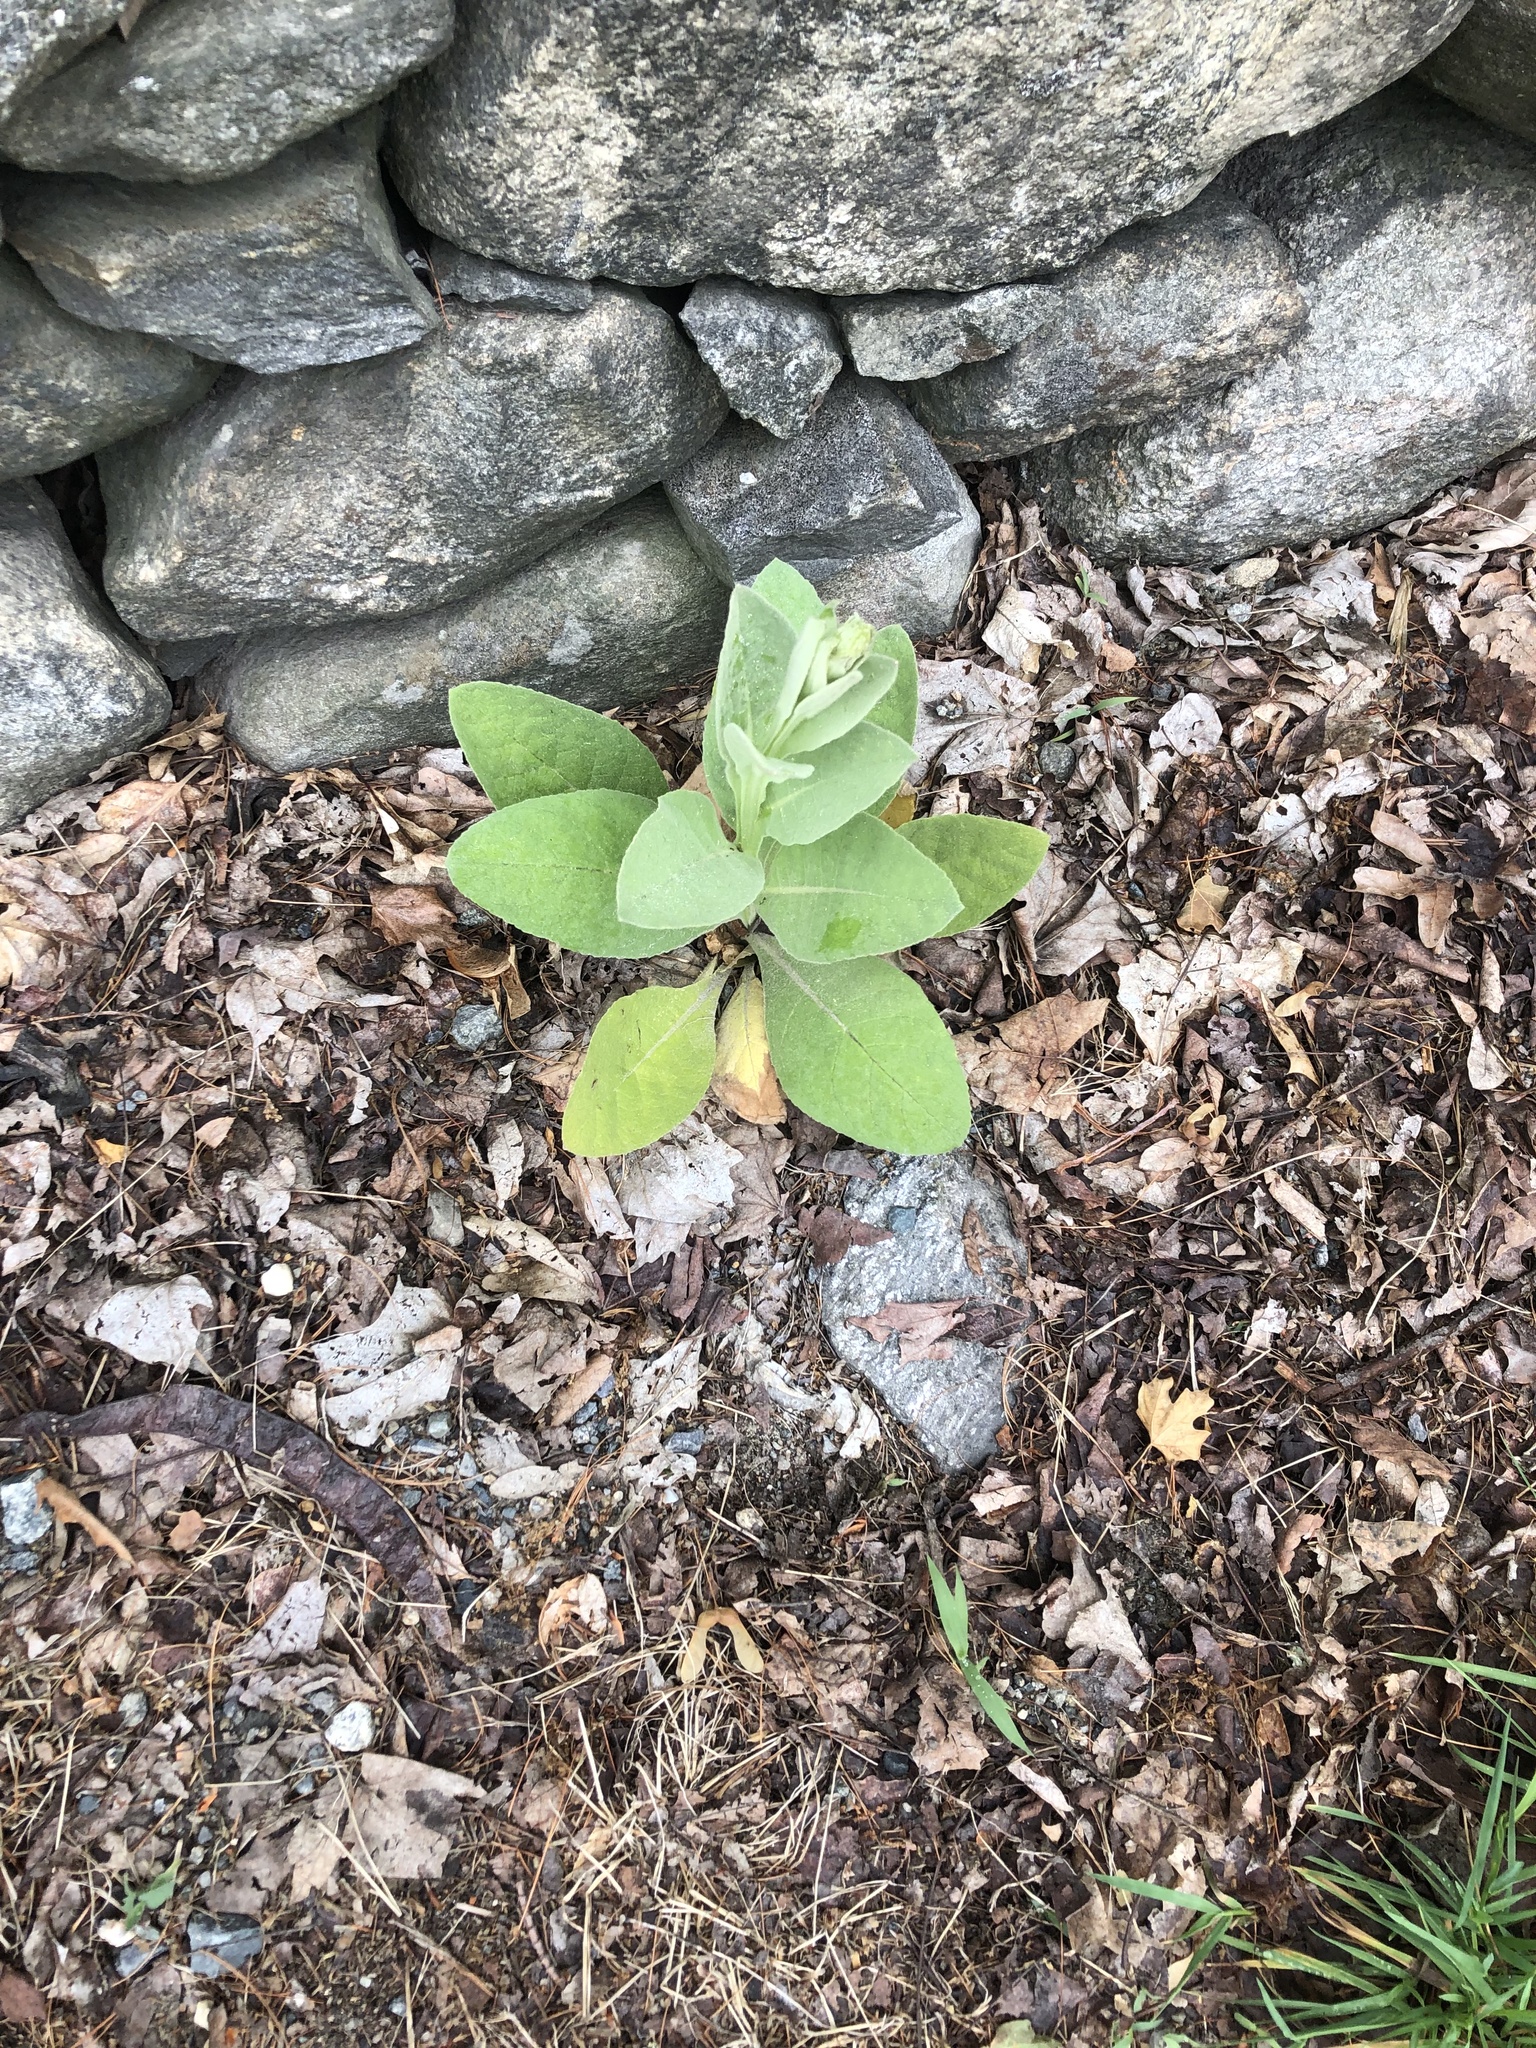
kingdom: Plantae
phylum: Tracheophyta
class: Magnoliopsida
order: Lamiales
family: Scrophulariaceae
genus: Verbascum
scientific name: Verbascum thapsus
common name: Common mullein
